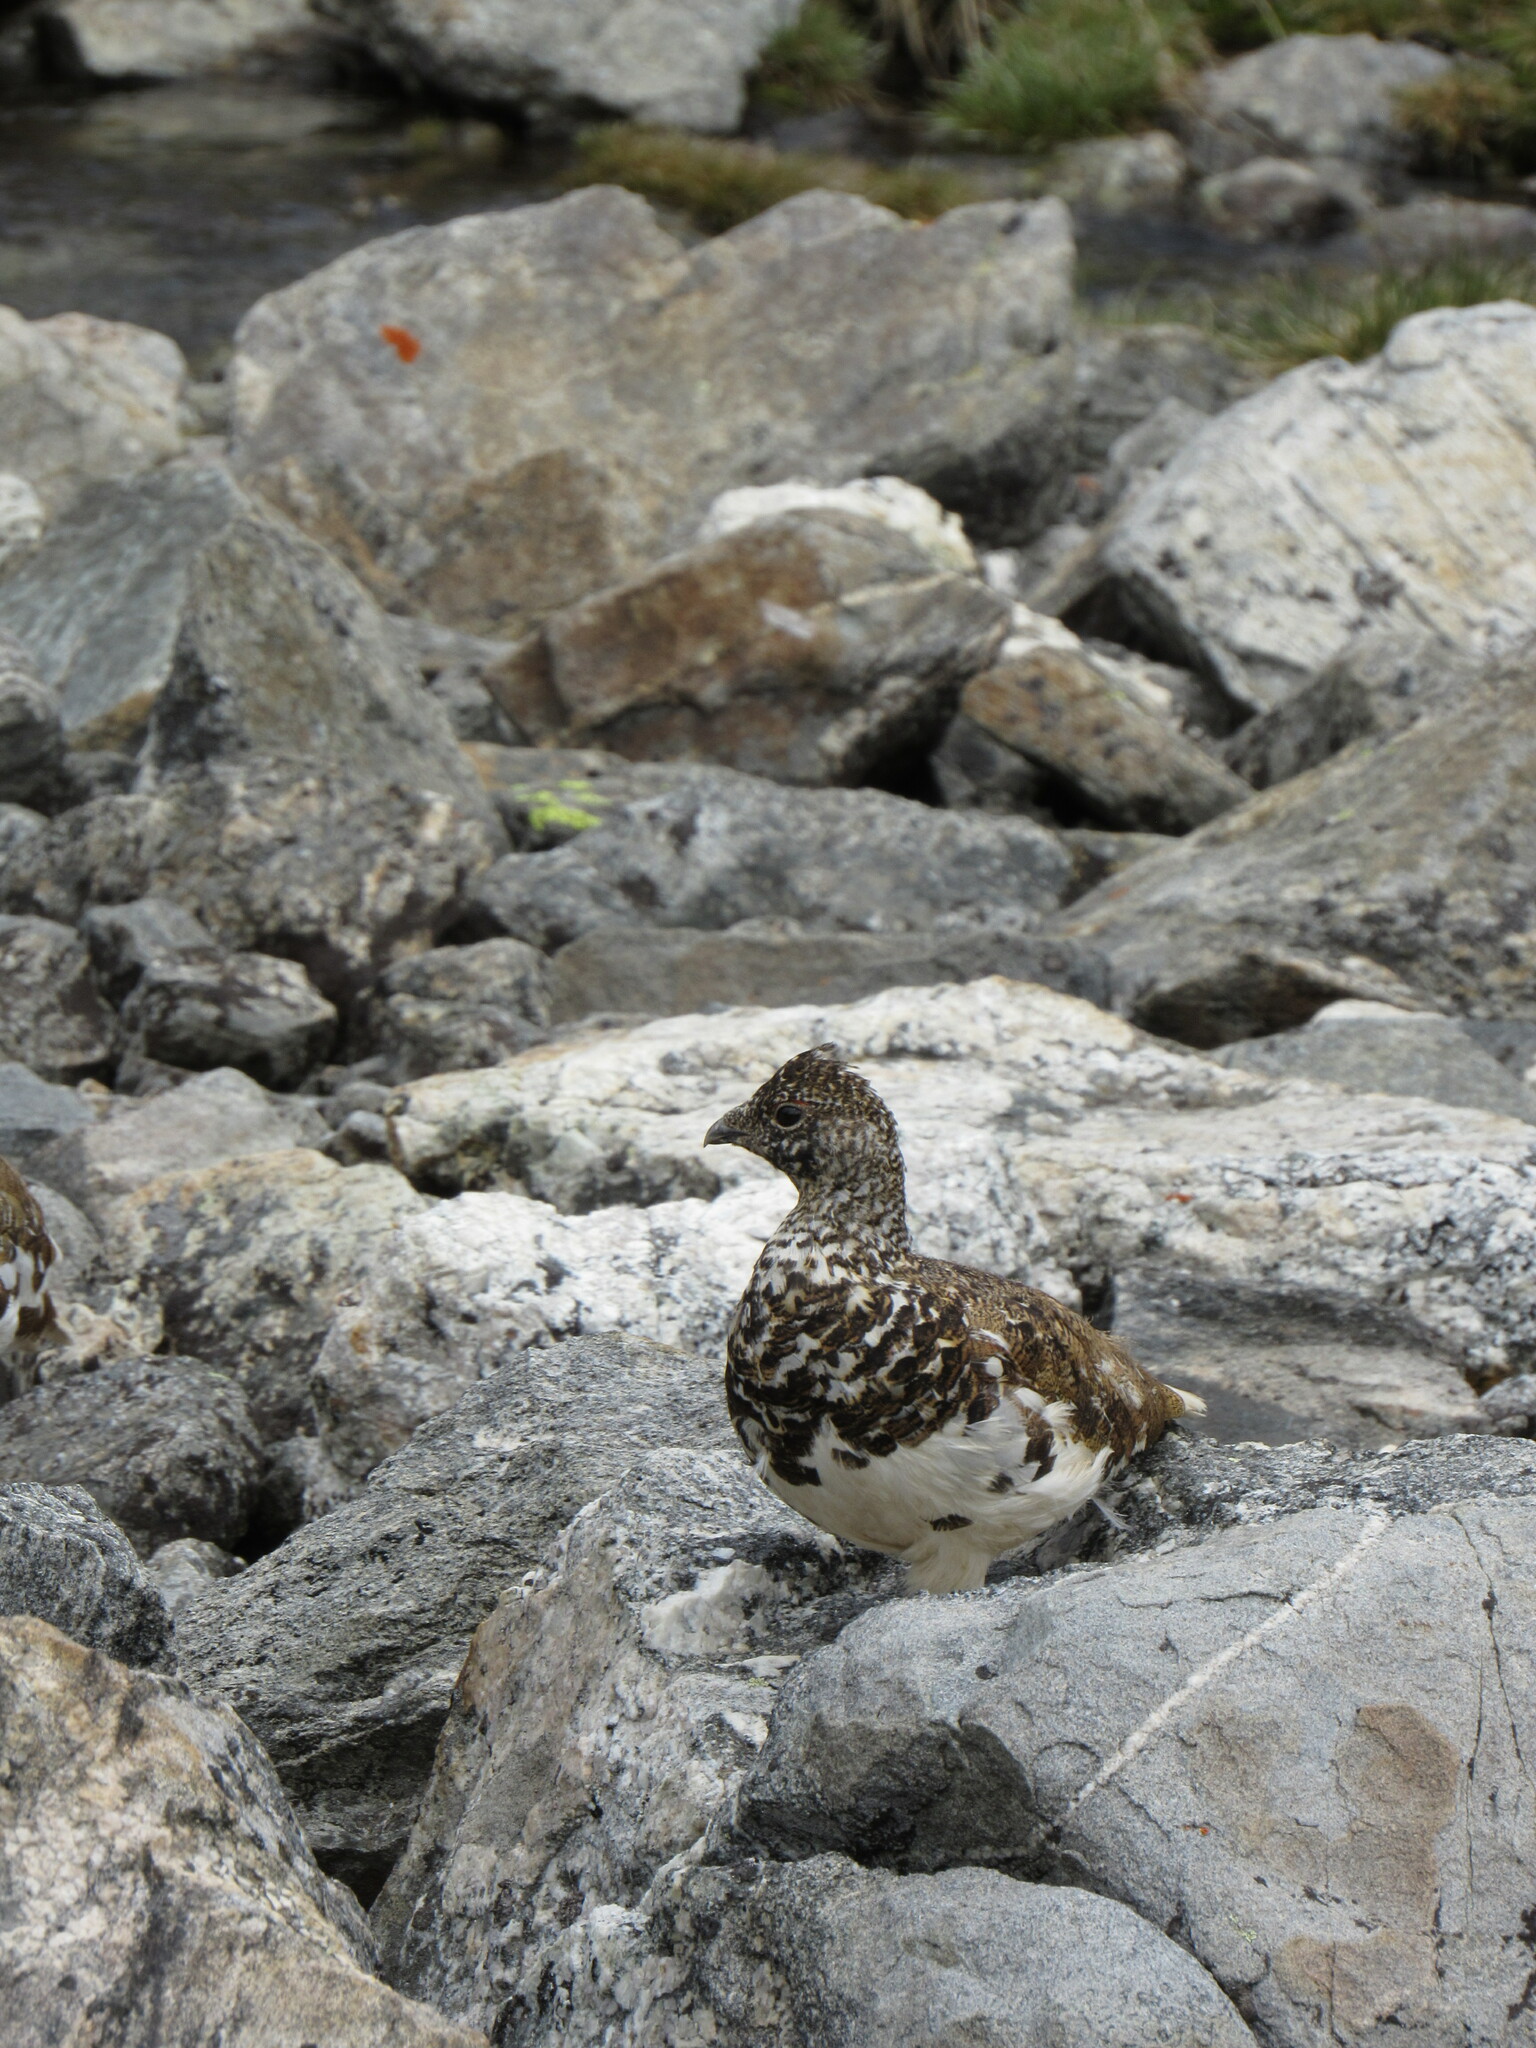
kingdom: Animalia
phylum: Chordata
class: Aves
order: Galliformes
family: Phasianidae
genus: Lagopus
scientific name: Lagopus leucura
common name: White-tailed ptarmigan
